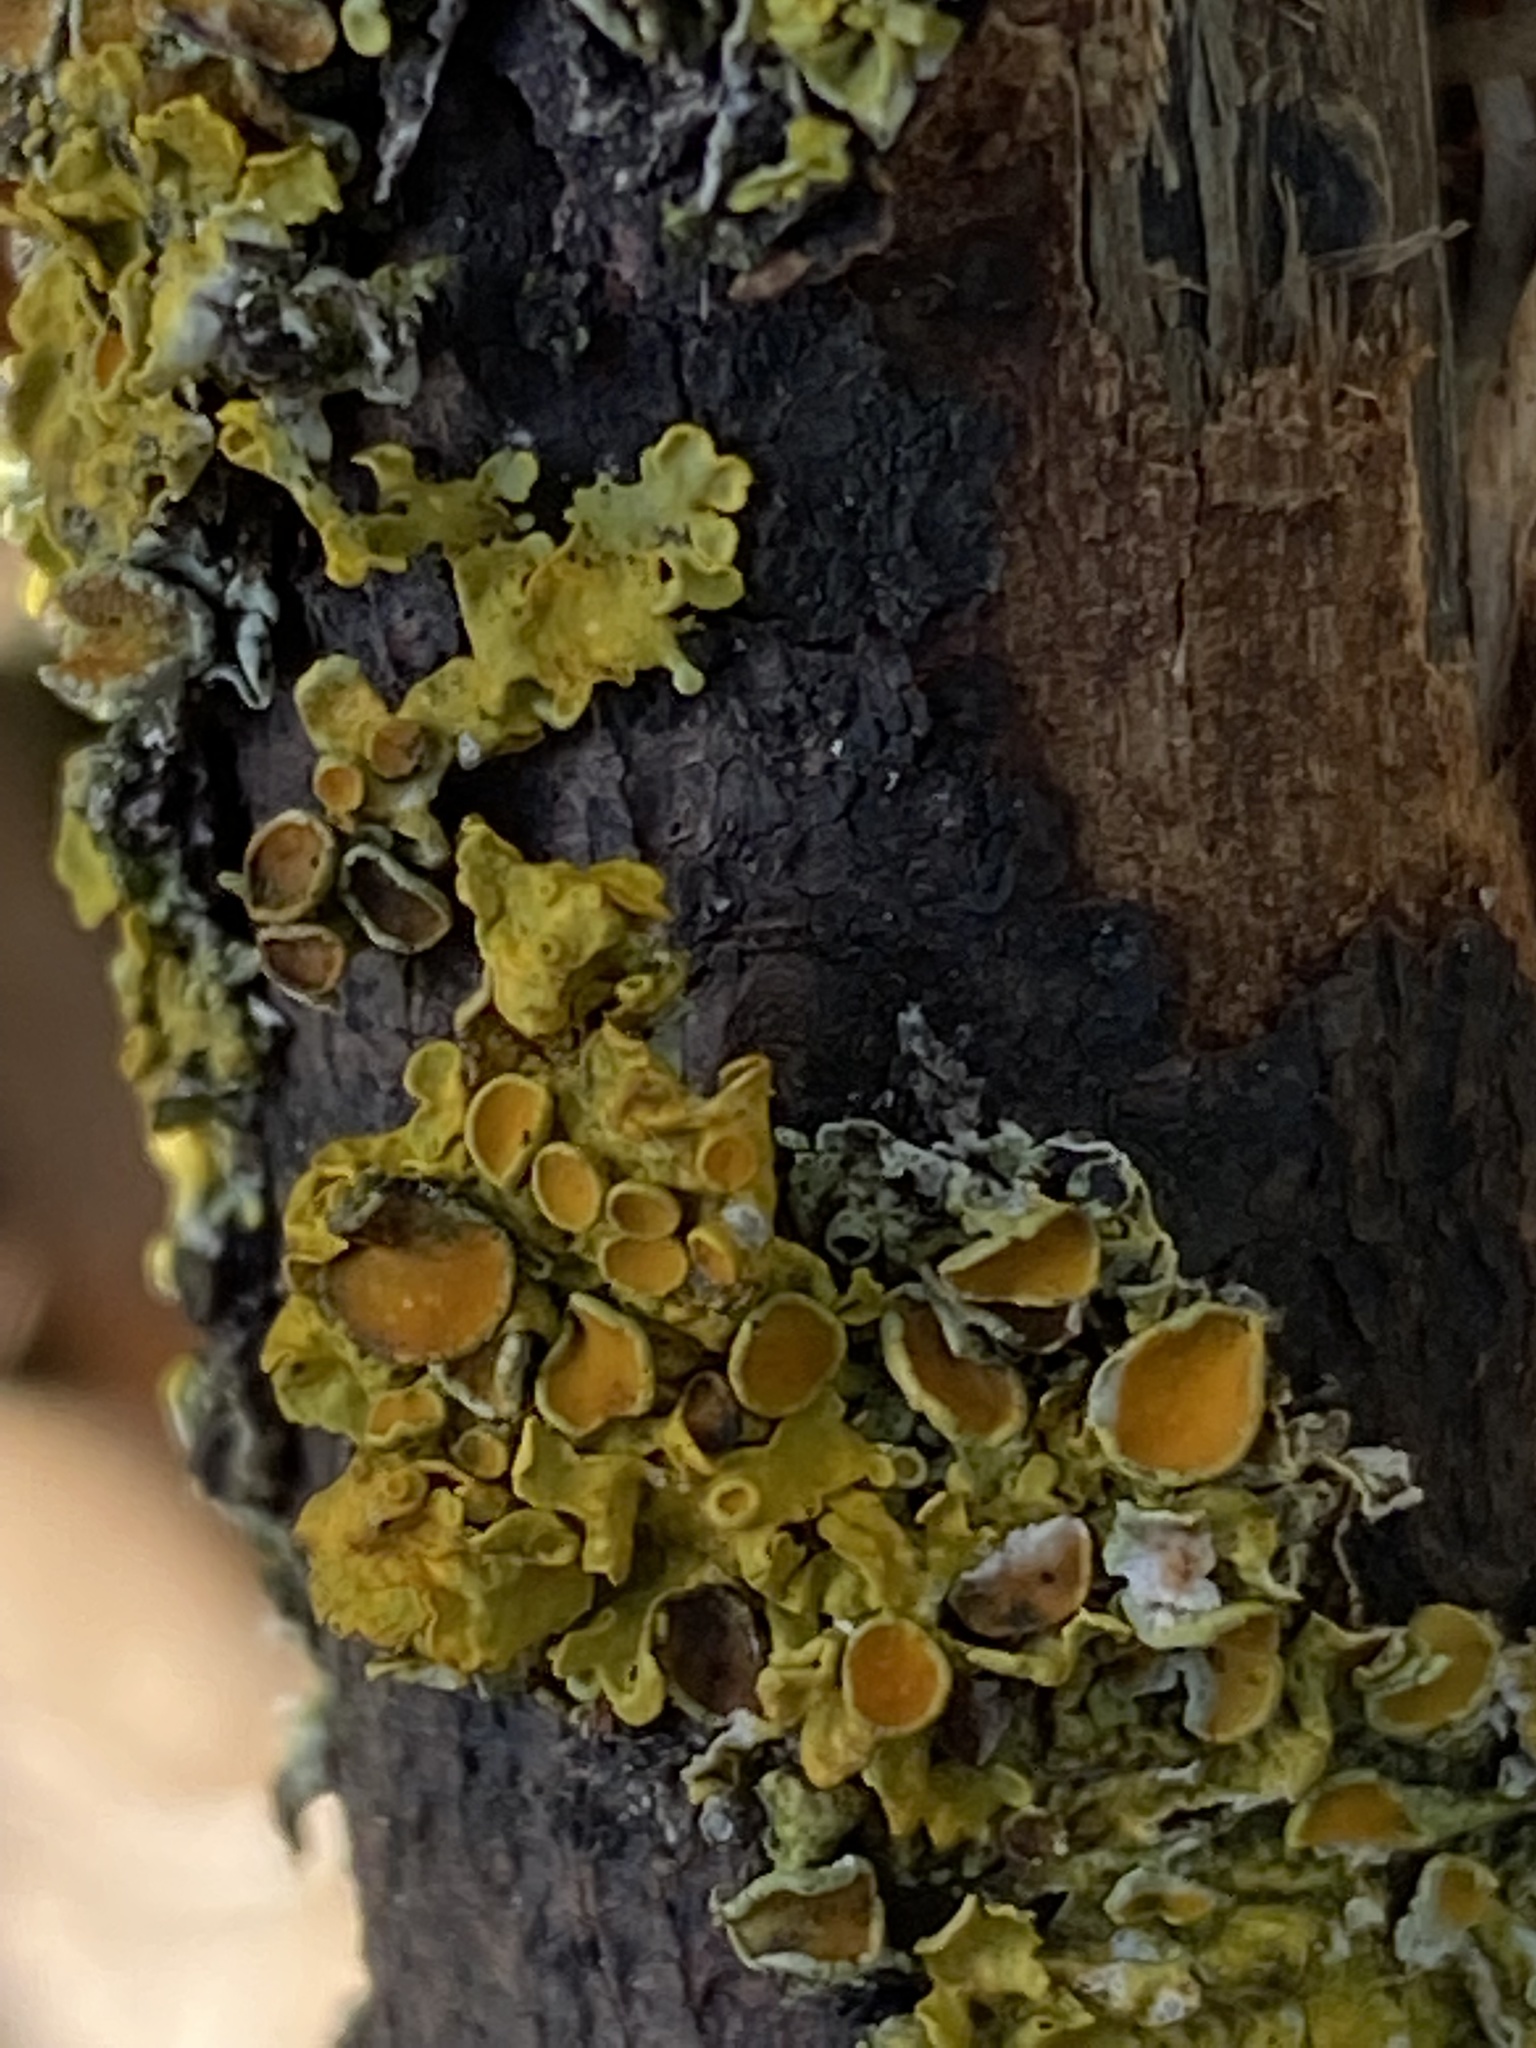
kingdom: Fungi
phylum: Ascomycota
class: Lecanoromycetes
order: Teloschistales
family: Teloschistaceae
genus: Xanthoria
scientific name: Xanthoria parietina
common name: Common orange lichen
